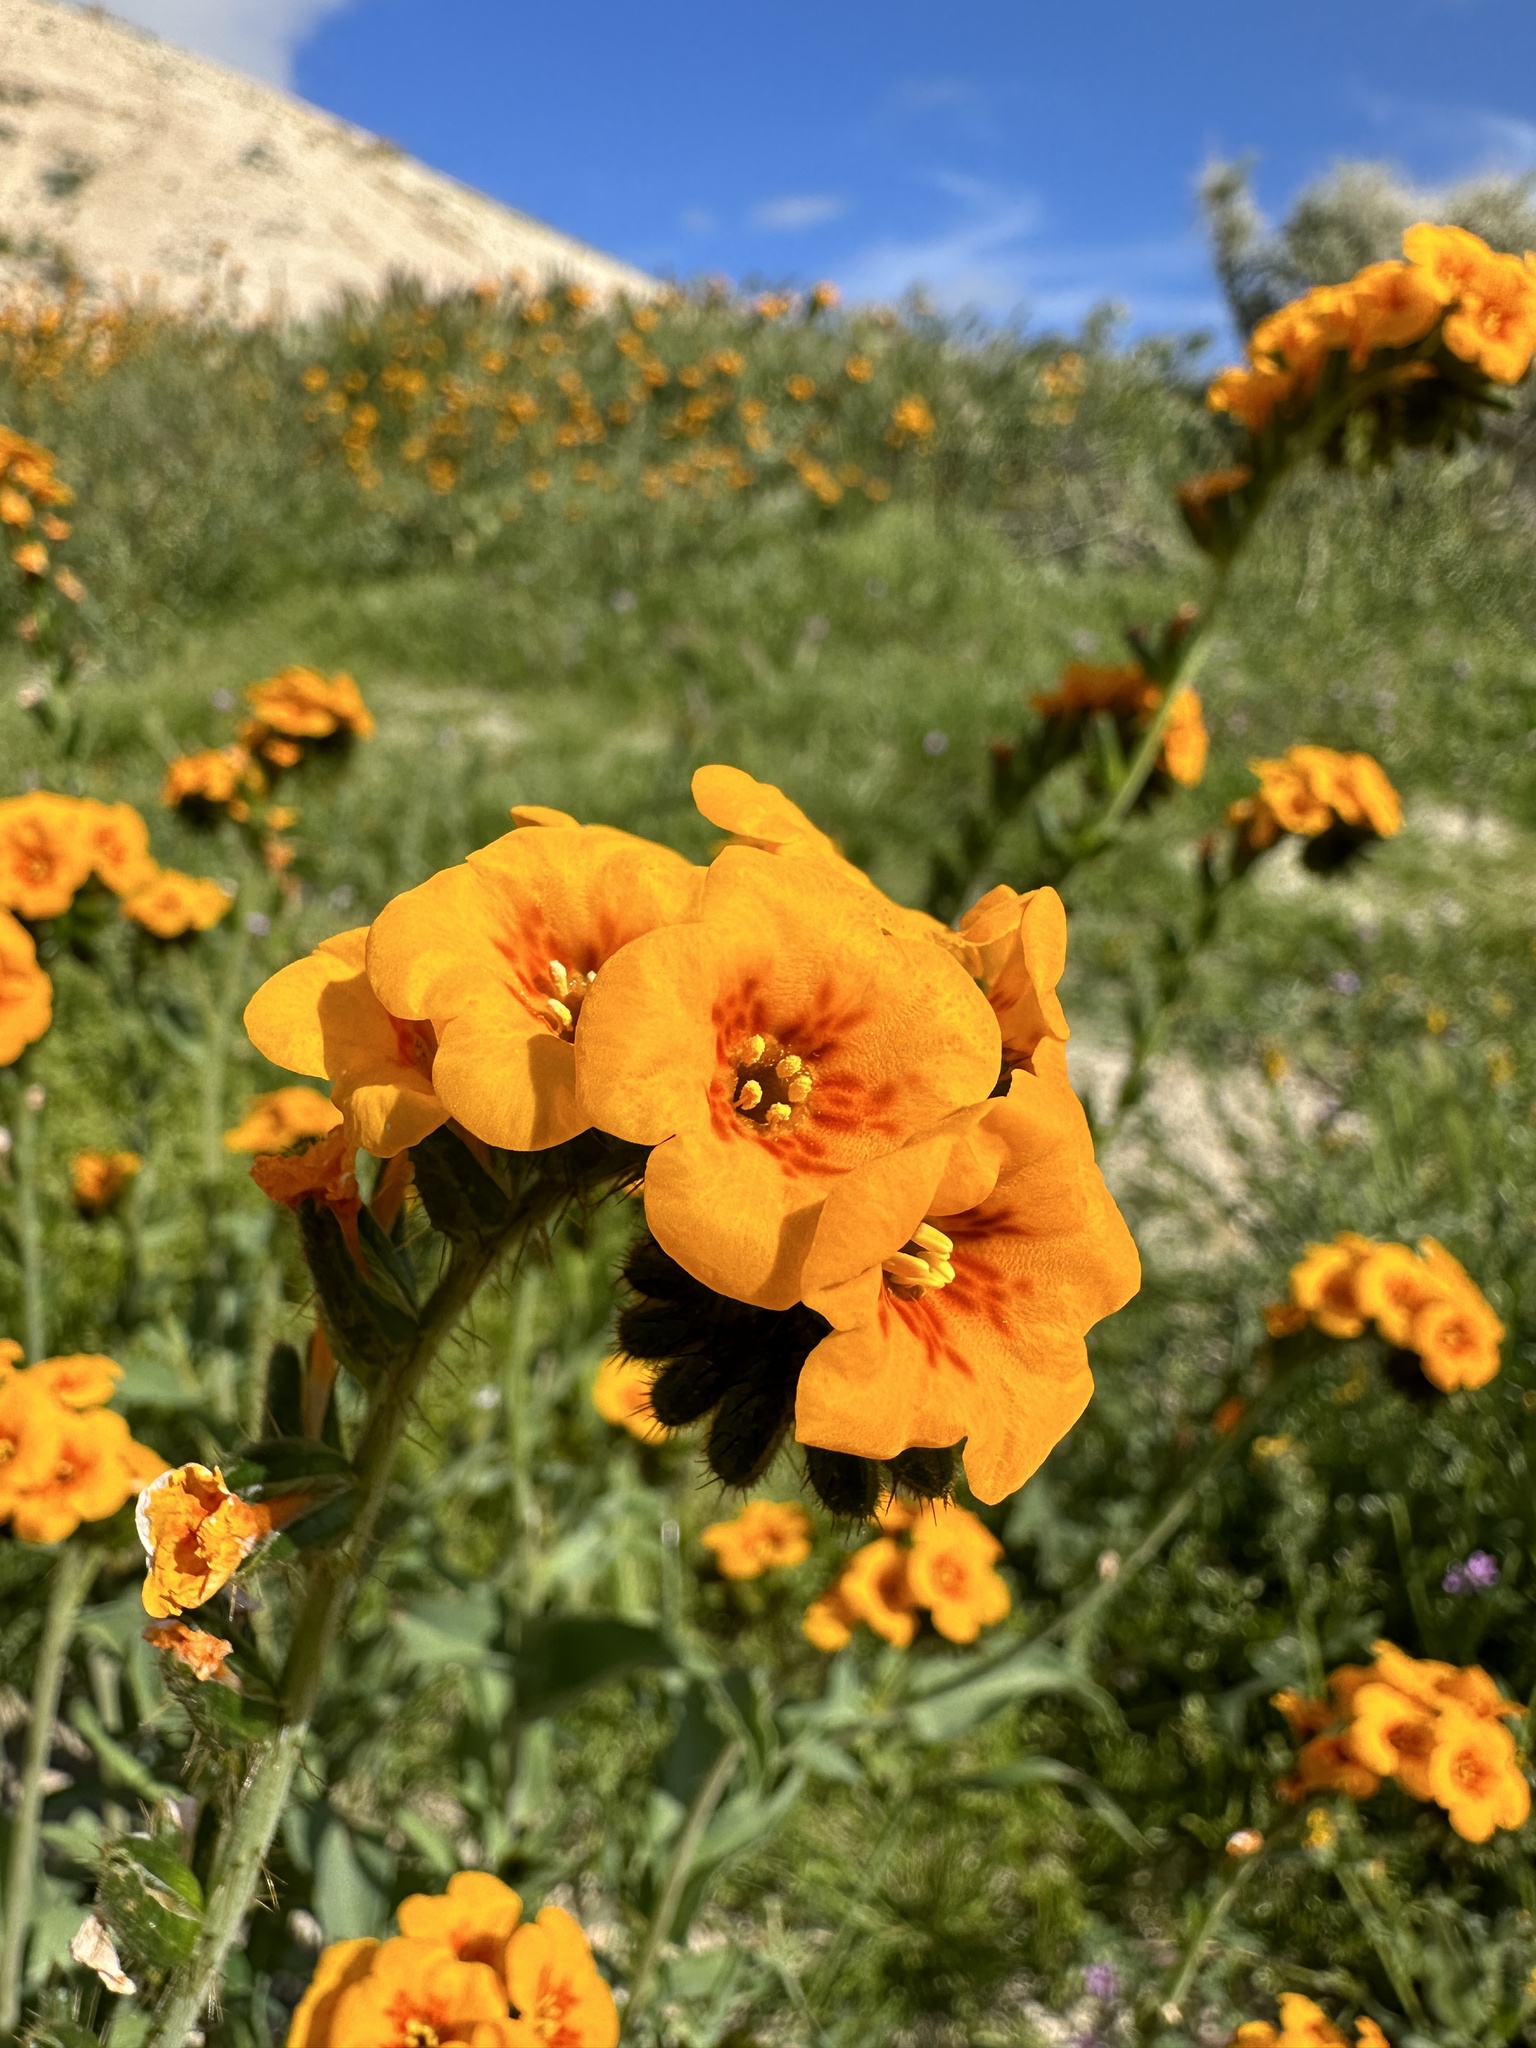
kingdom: Plantae
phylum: Tracheophyta
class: Magnoliopsida
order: Boraginales
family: Boraginaceae
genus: Amsinckia
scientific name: Amsinckia vernicosa
